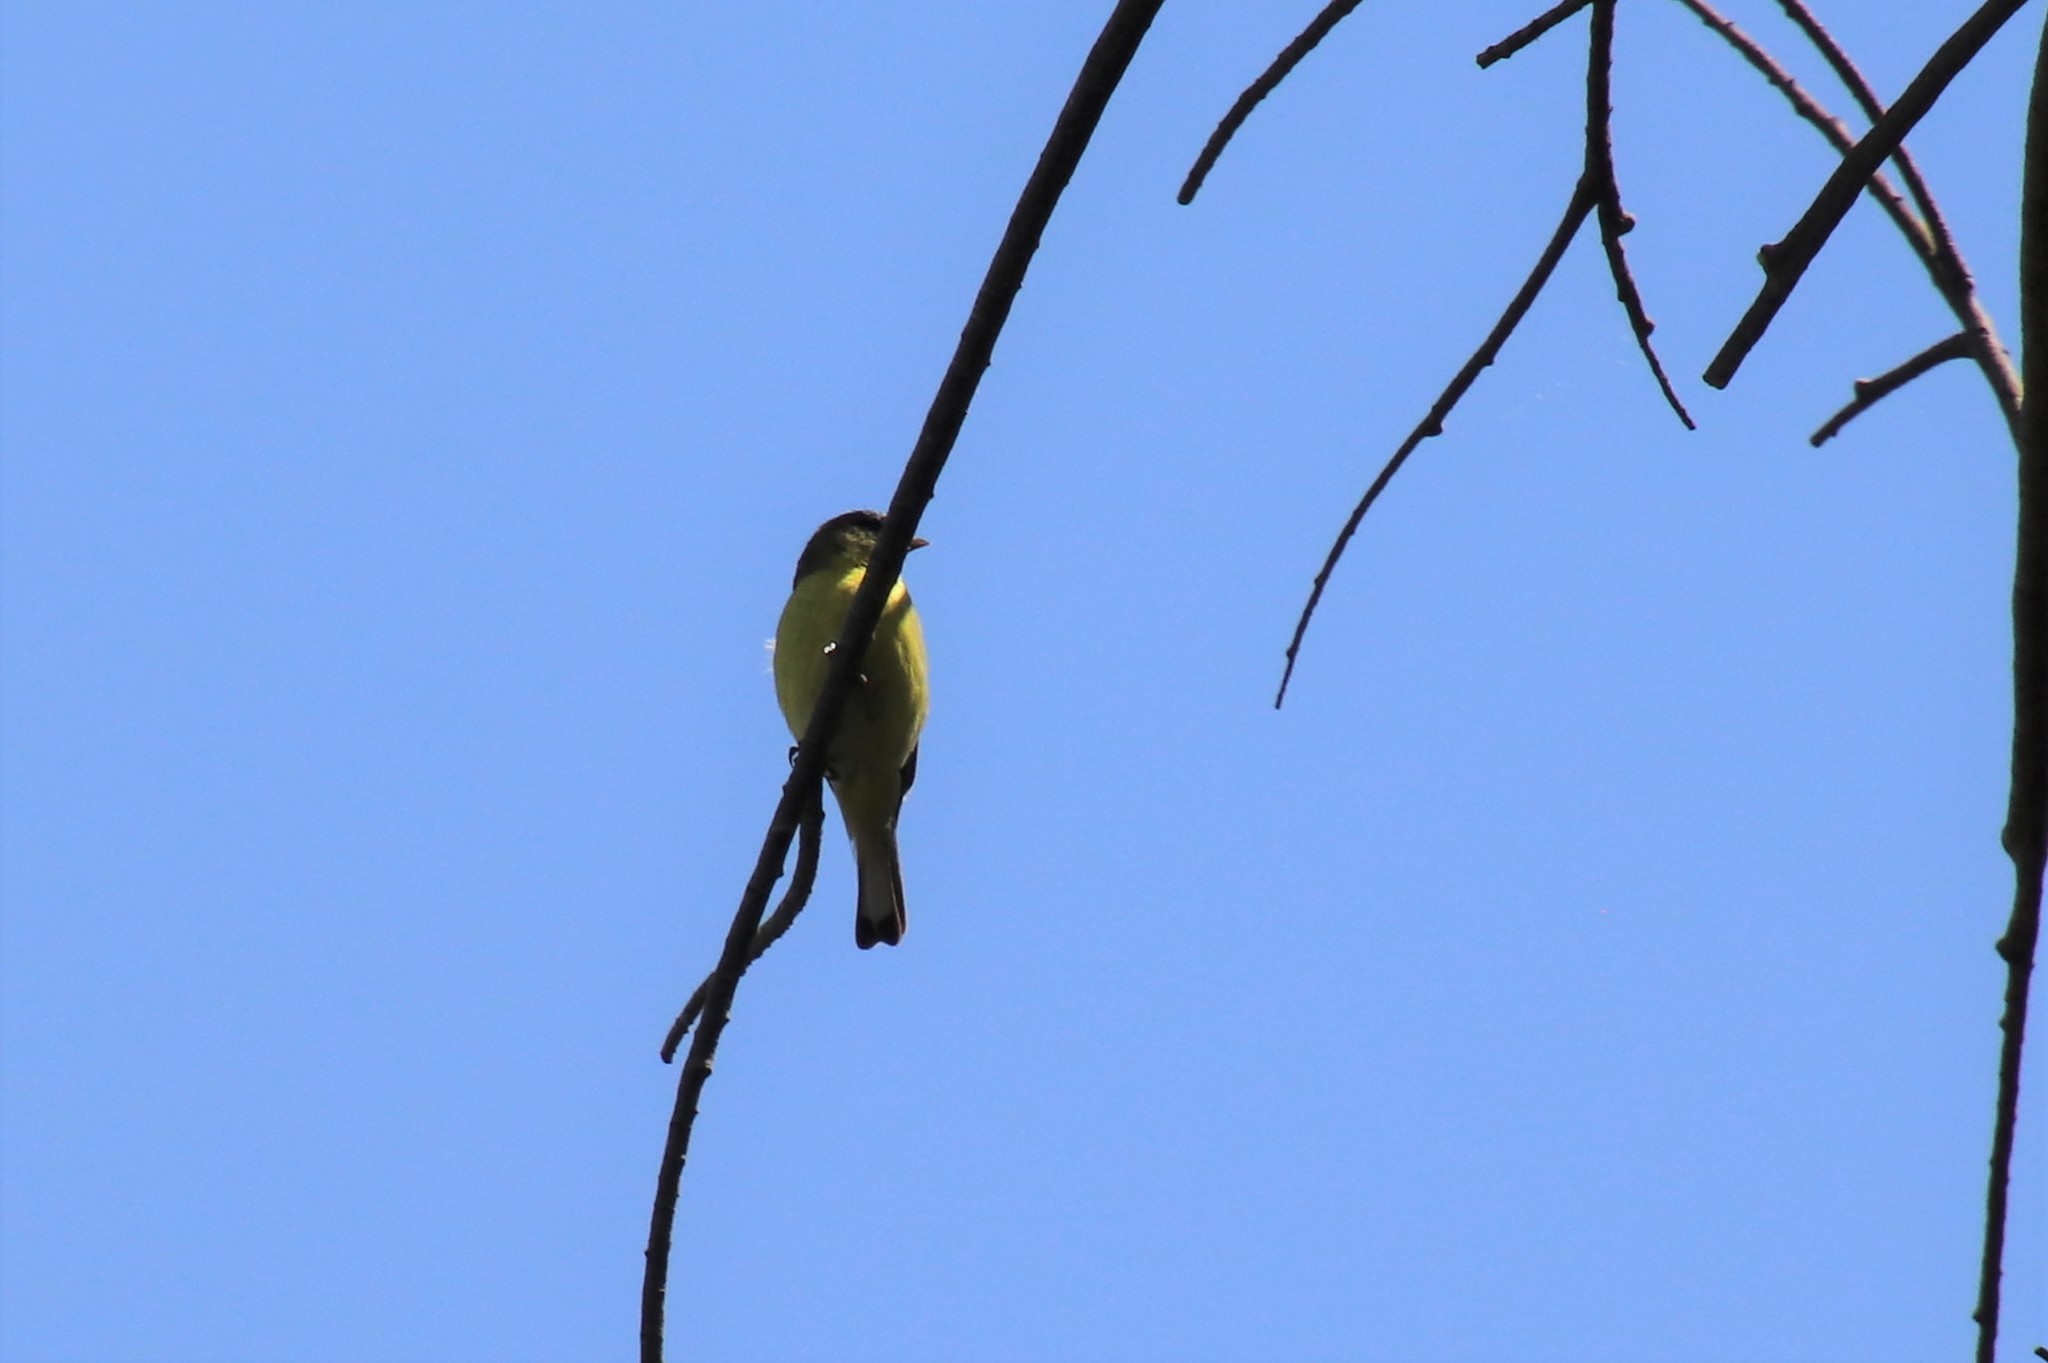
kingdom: Animalia
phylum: Chordata
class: Aves
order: Passeriformes
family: Fringillidae
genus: Spinus
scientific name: Spinus psaltria
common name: Lesser goldfinch
